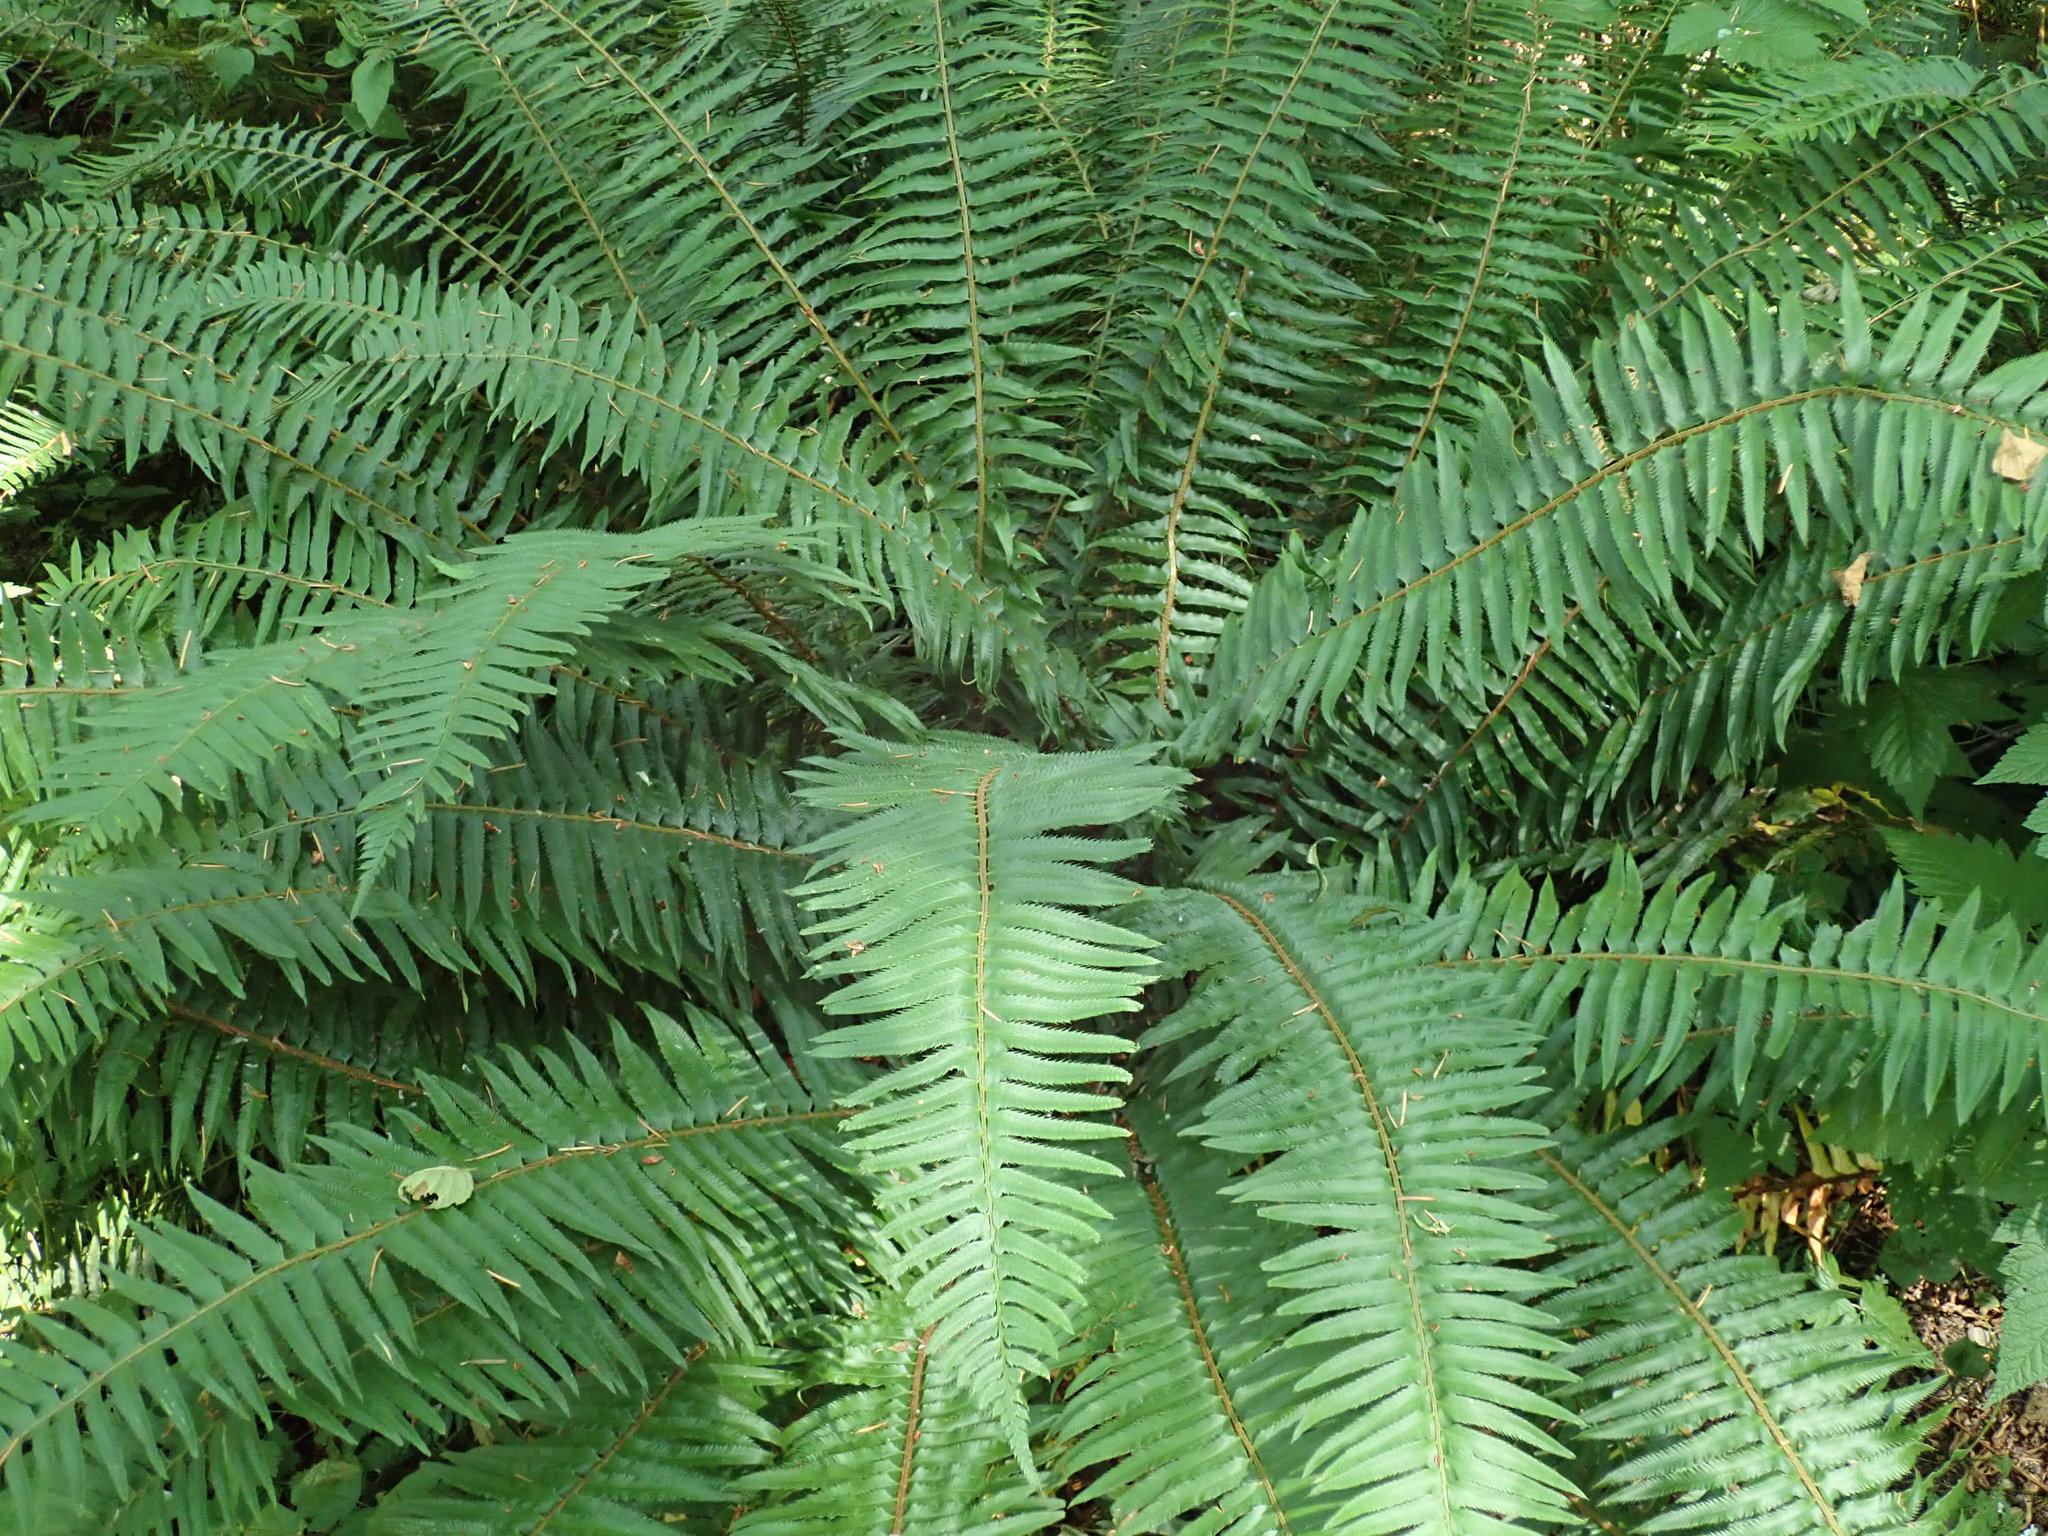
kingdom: Plantae
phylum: Tracheophyta
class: Polypodiopsida
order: Polypodiales
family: Dryopteridaceae
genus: Polystichum
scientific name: Polystichum munitum
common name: Western sword-fern
